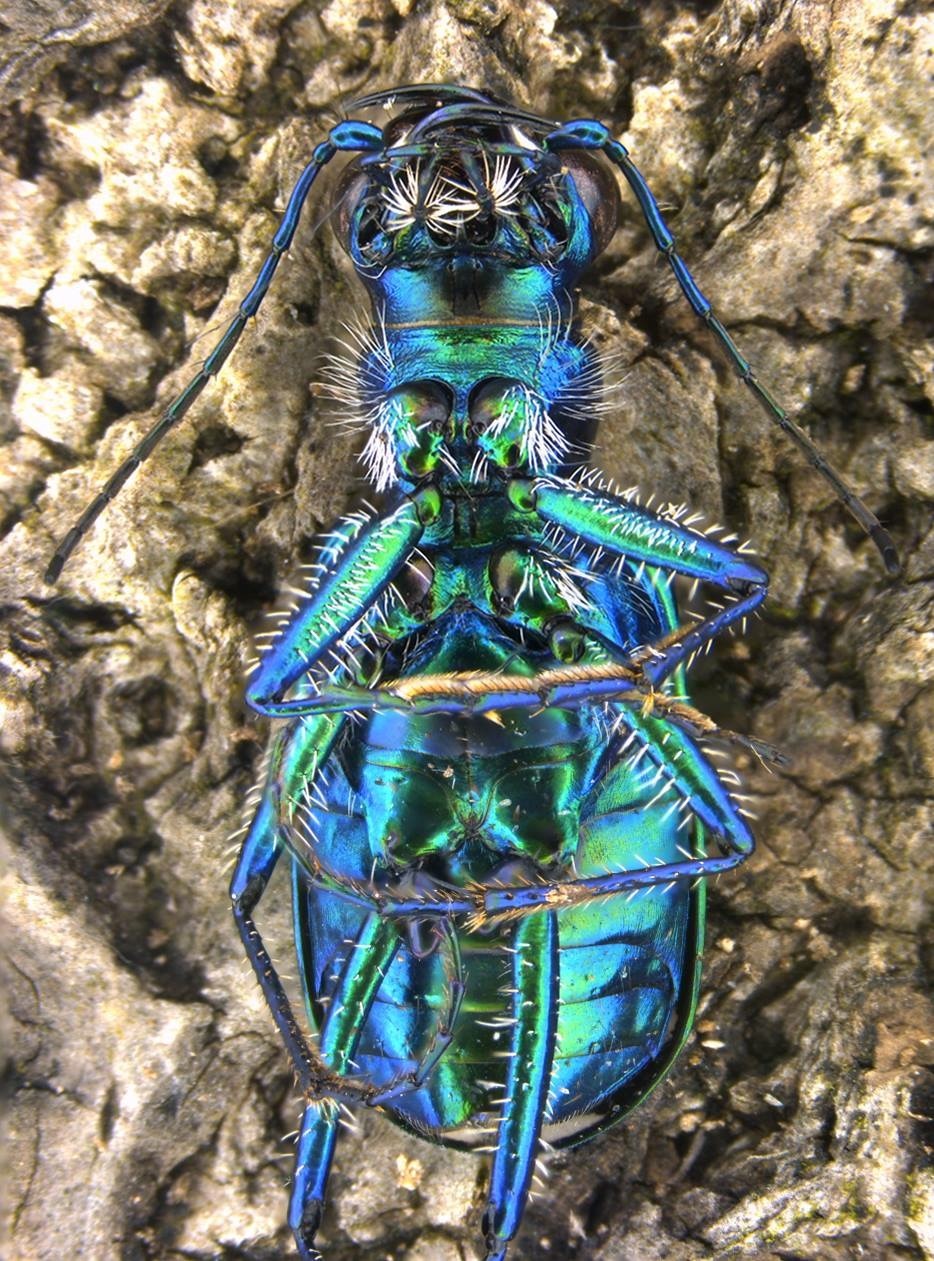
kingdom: Animalia
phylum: Arthropoda
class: Insecta
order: Coleoptera
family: Carabidae
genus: Cicindela
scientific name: Cicindela sexguttata
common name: Six-spotted tiger beetle
